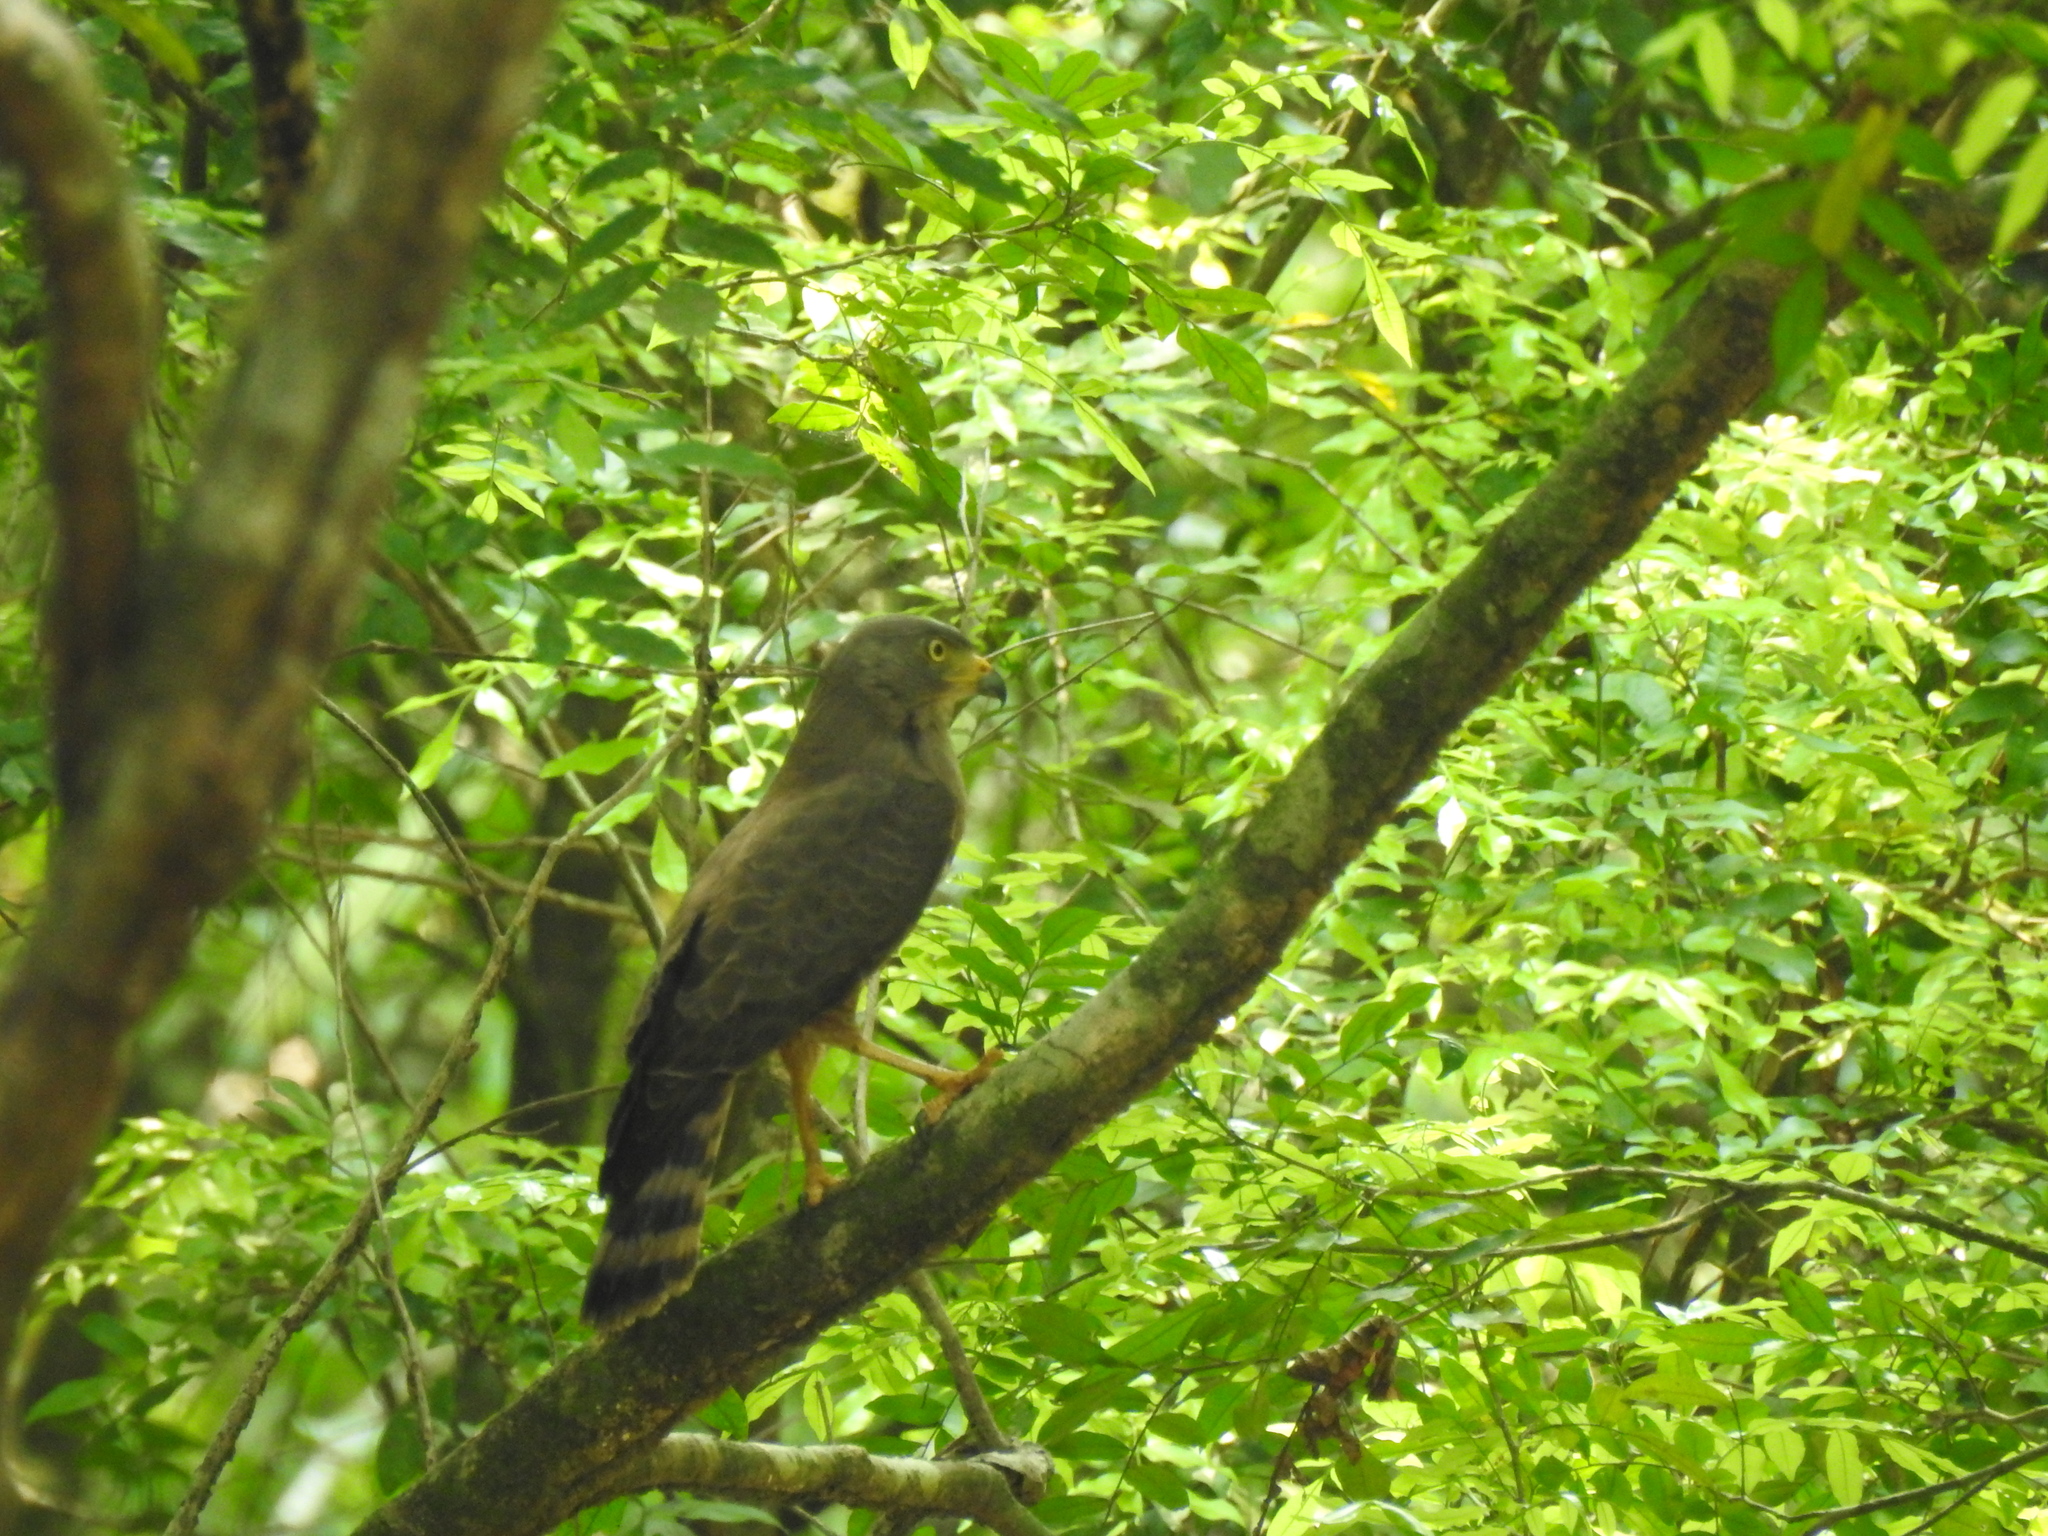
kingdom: Animalia
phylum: Chordata
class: Aves
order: Accipitriformes
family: Accipitridae
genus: Rupornis
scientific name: Rupornis magnirostris
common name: Roadside hawk
